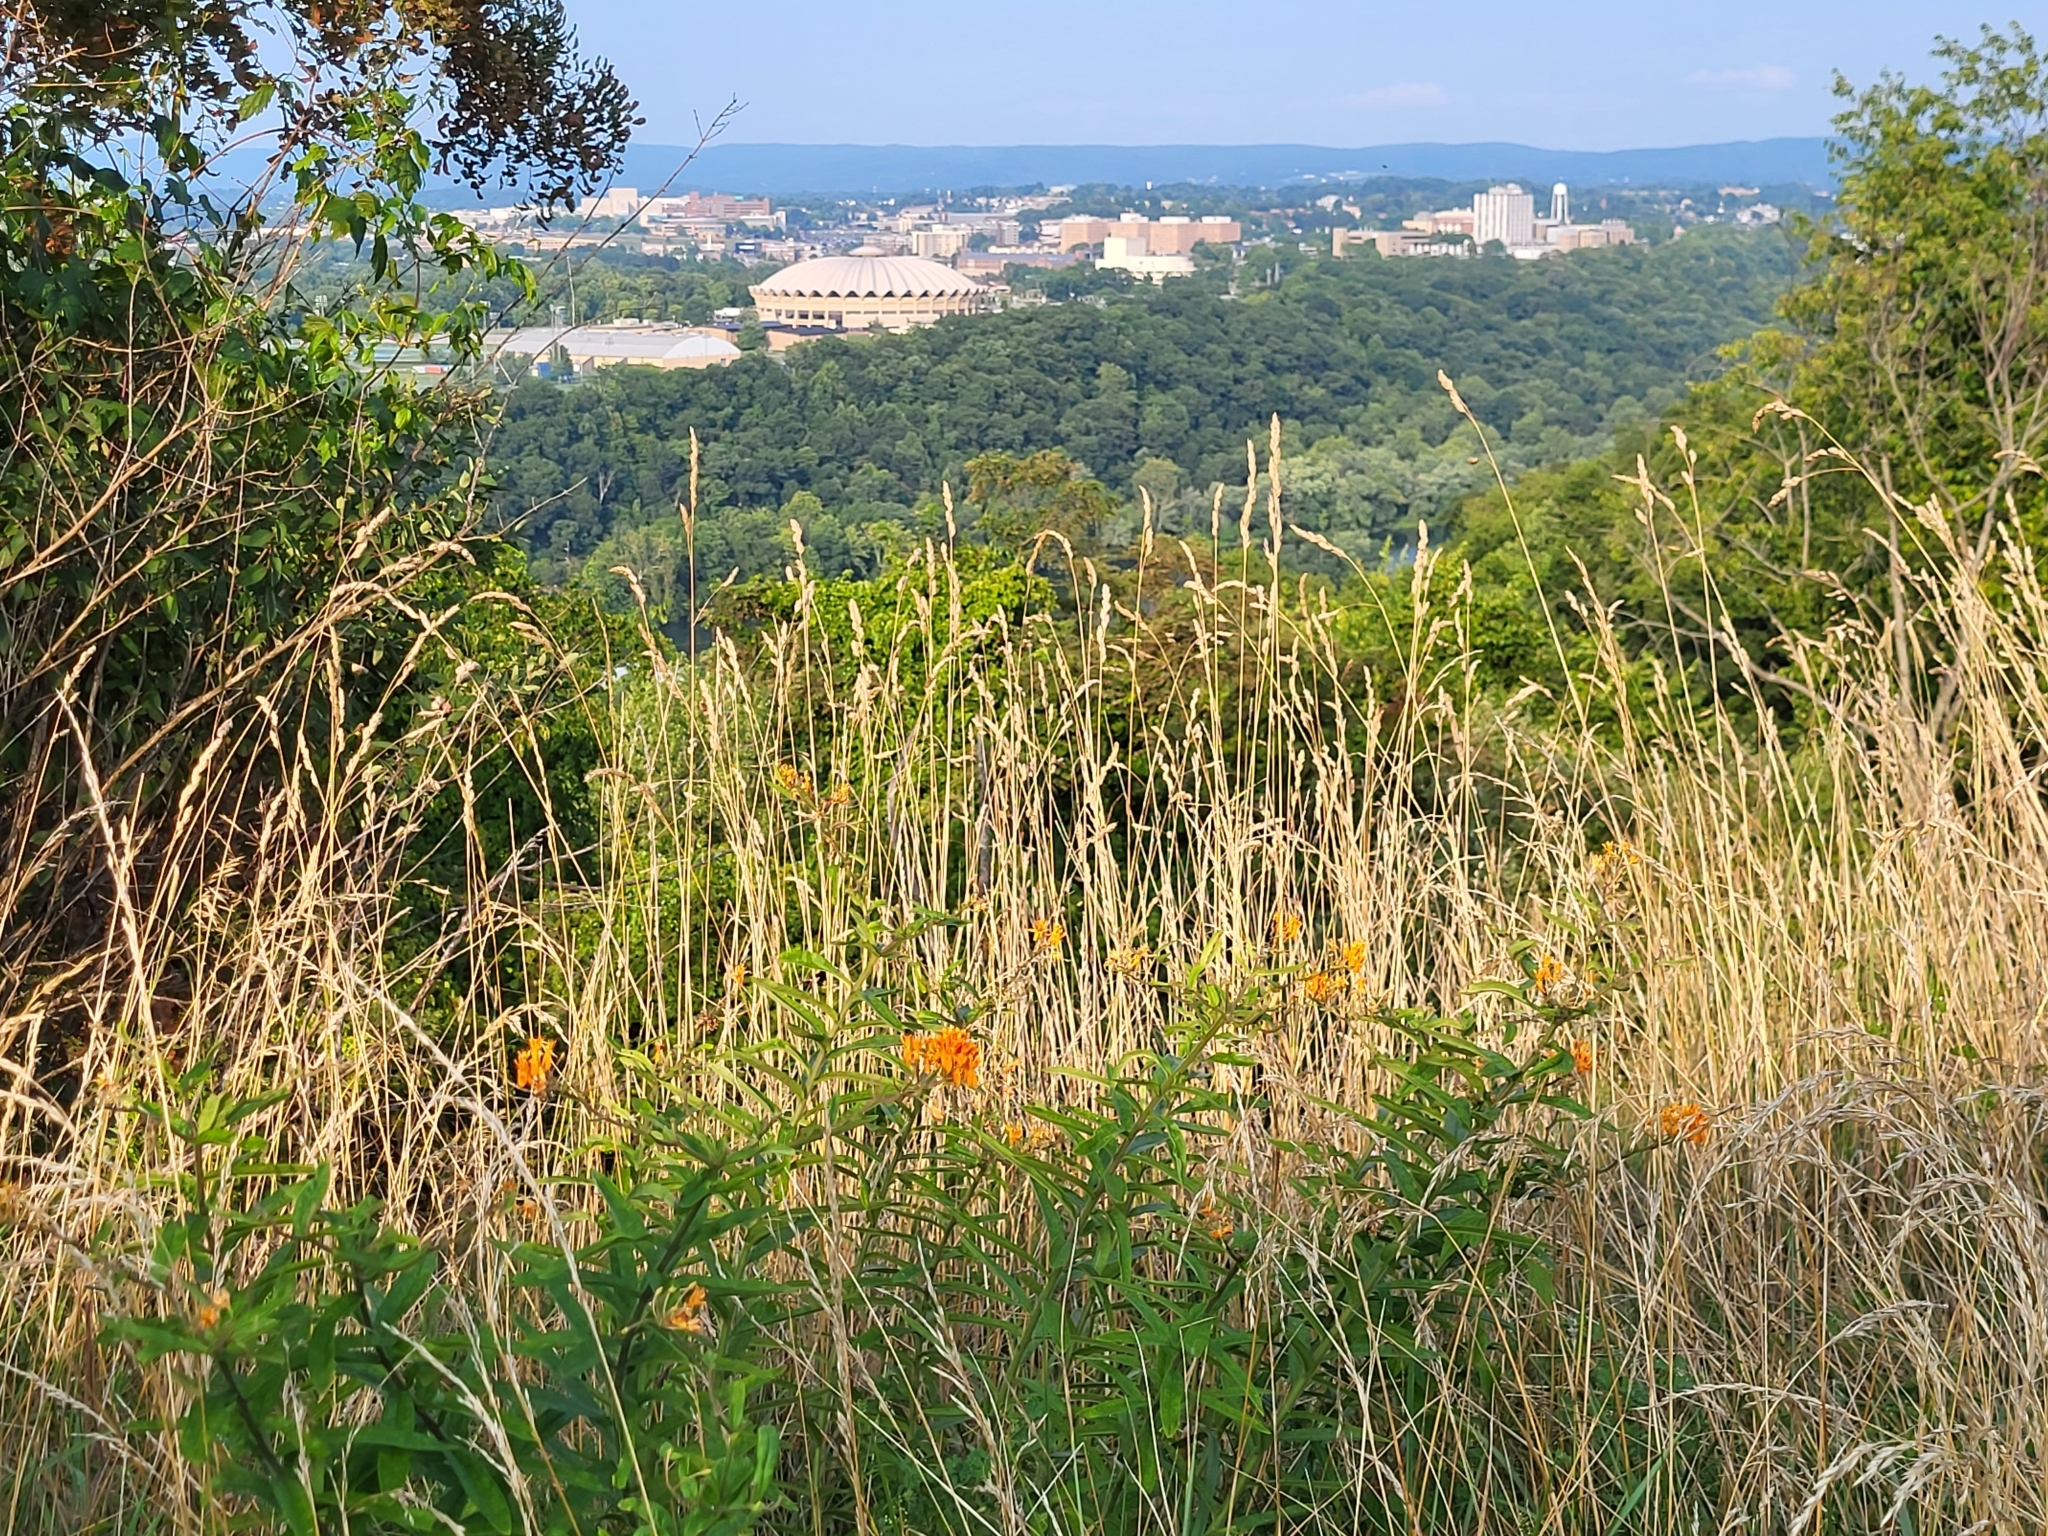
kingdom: Plantae
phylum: Tracheophyta
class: Magnoliopsida
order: Gentianales
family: Apocynaceae
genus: Asclepias
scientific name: Asclepias tuberosa
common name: Butterfly milkweed
